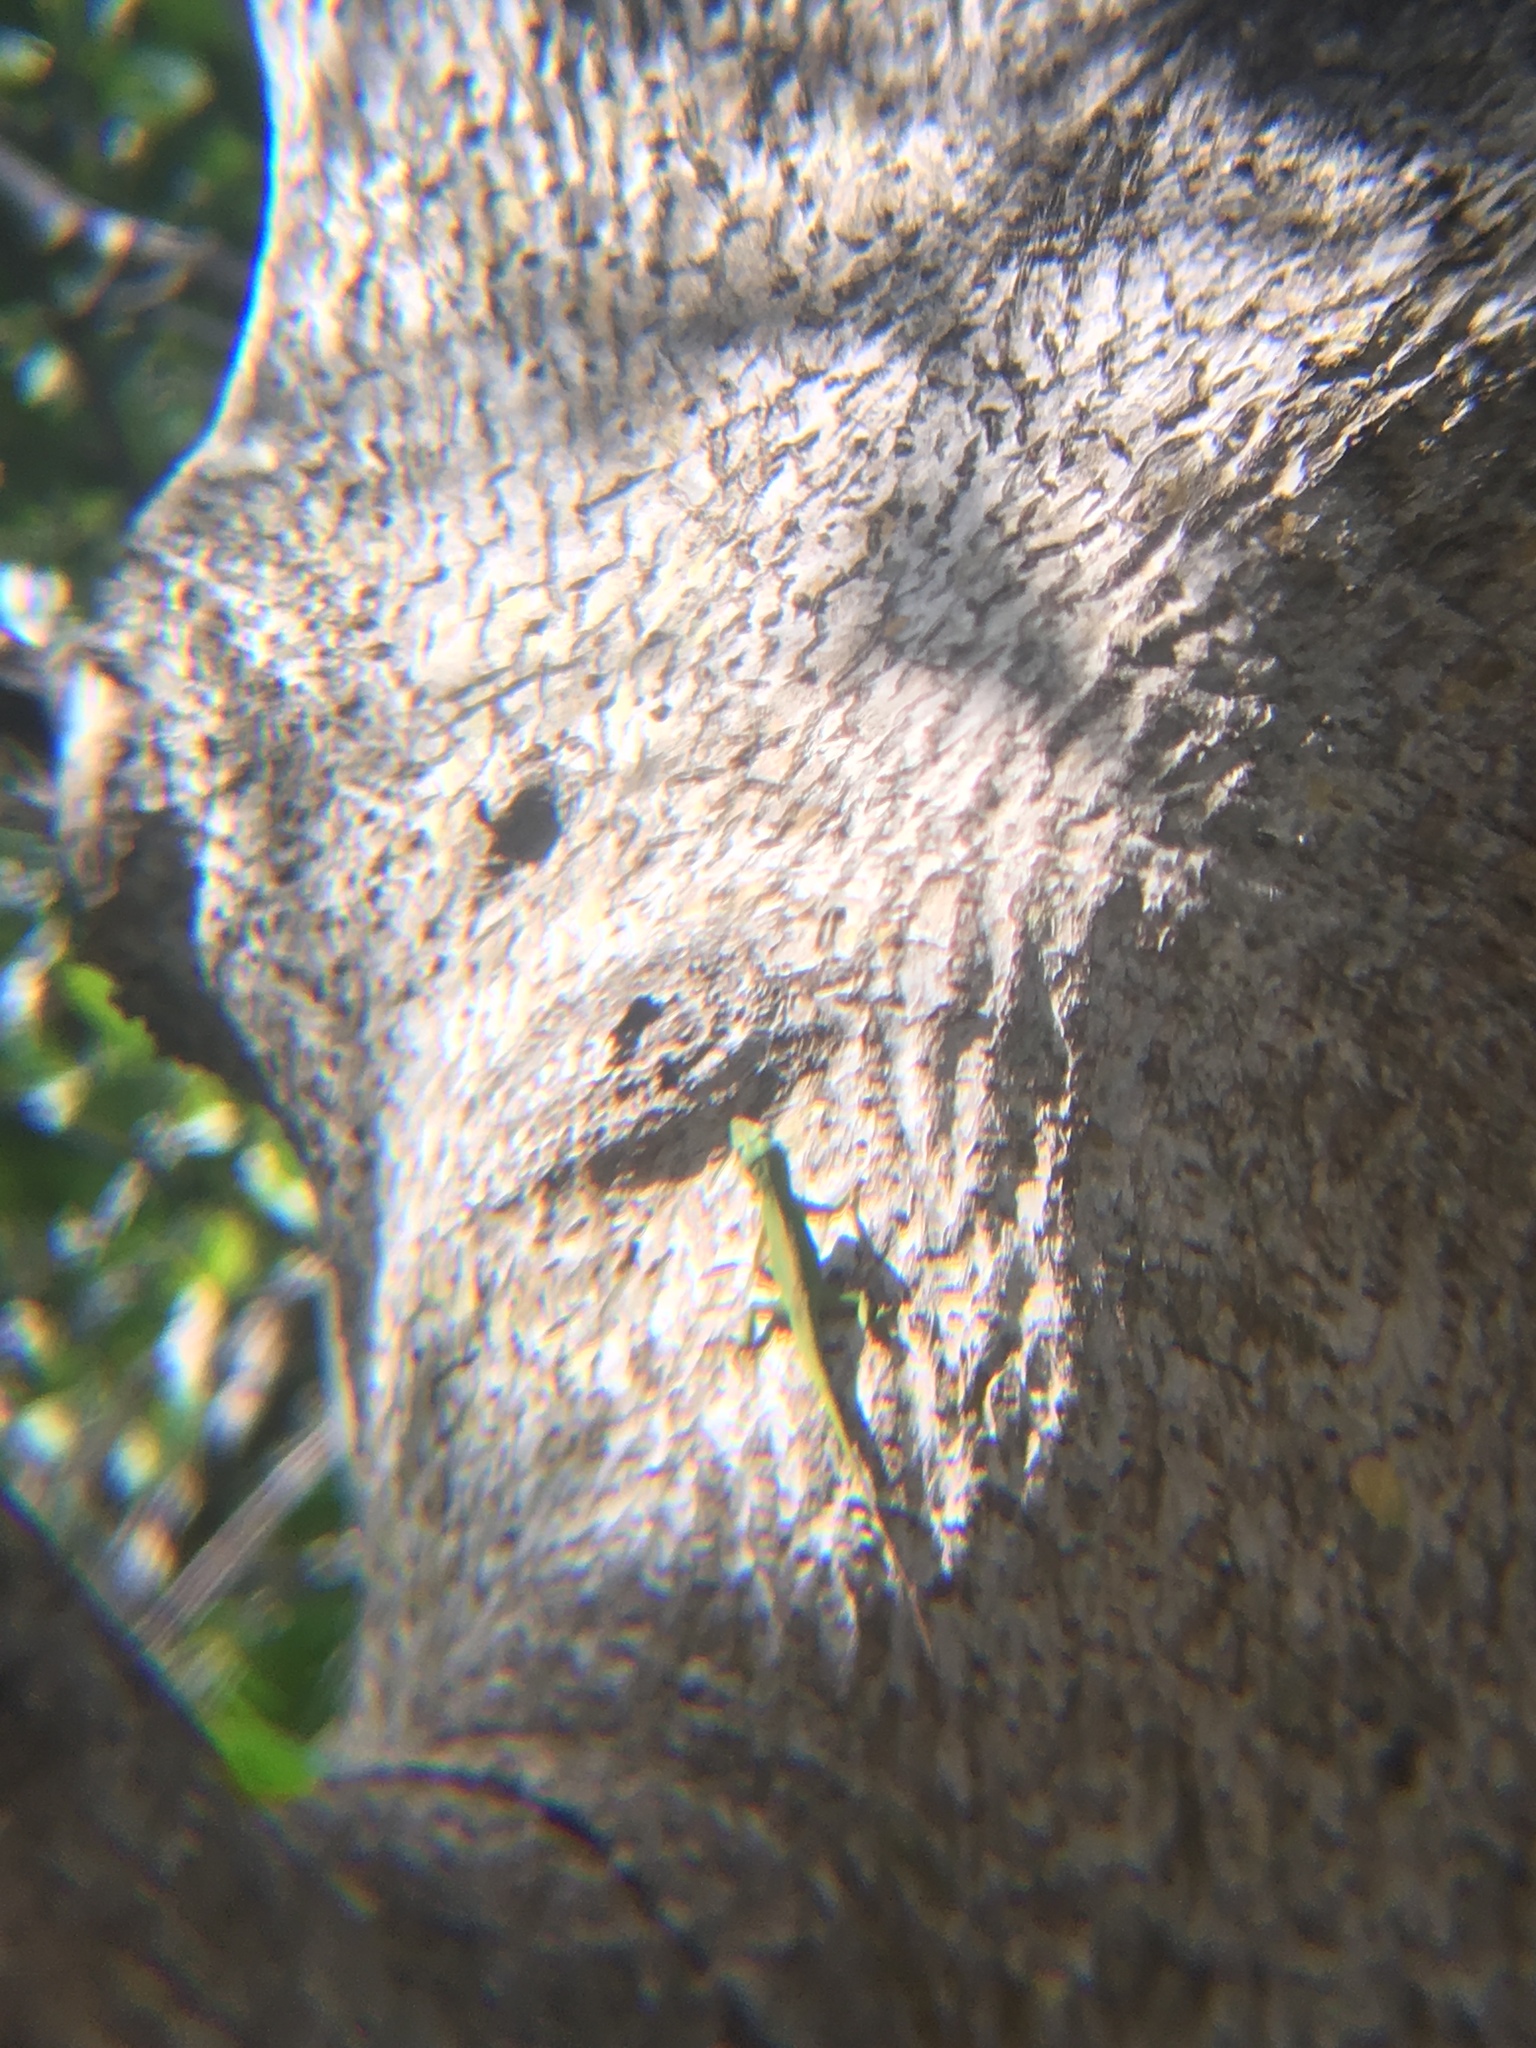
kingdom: Animalia
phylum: Chordata
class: Squamata
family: Dactyloidae
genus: Anolis
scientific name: Anolis carolinensis
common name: Green anole
